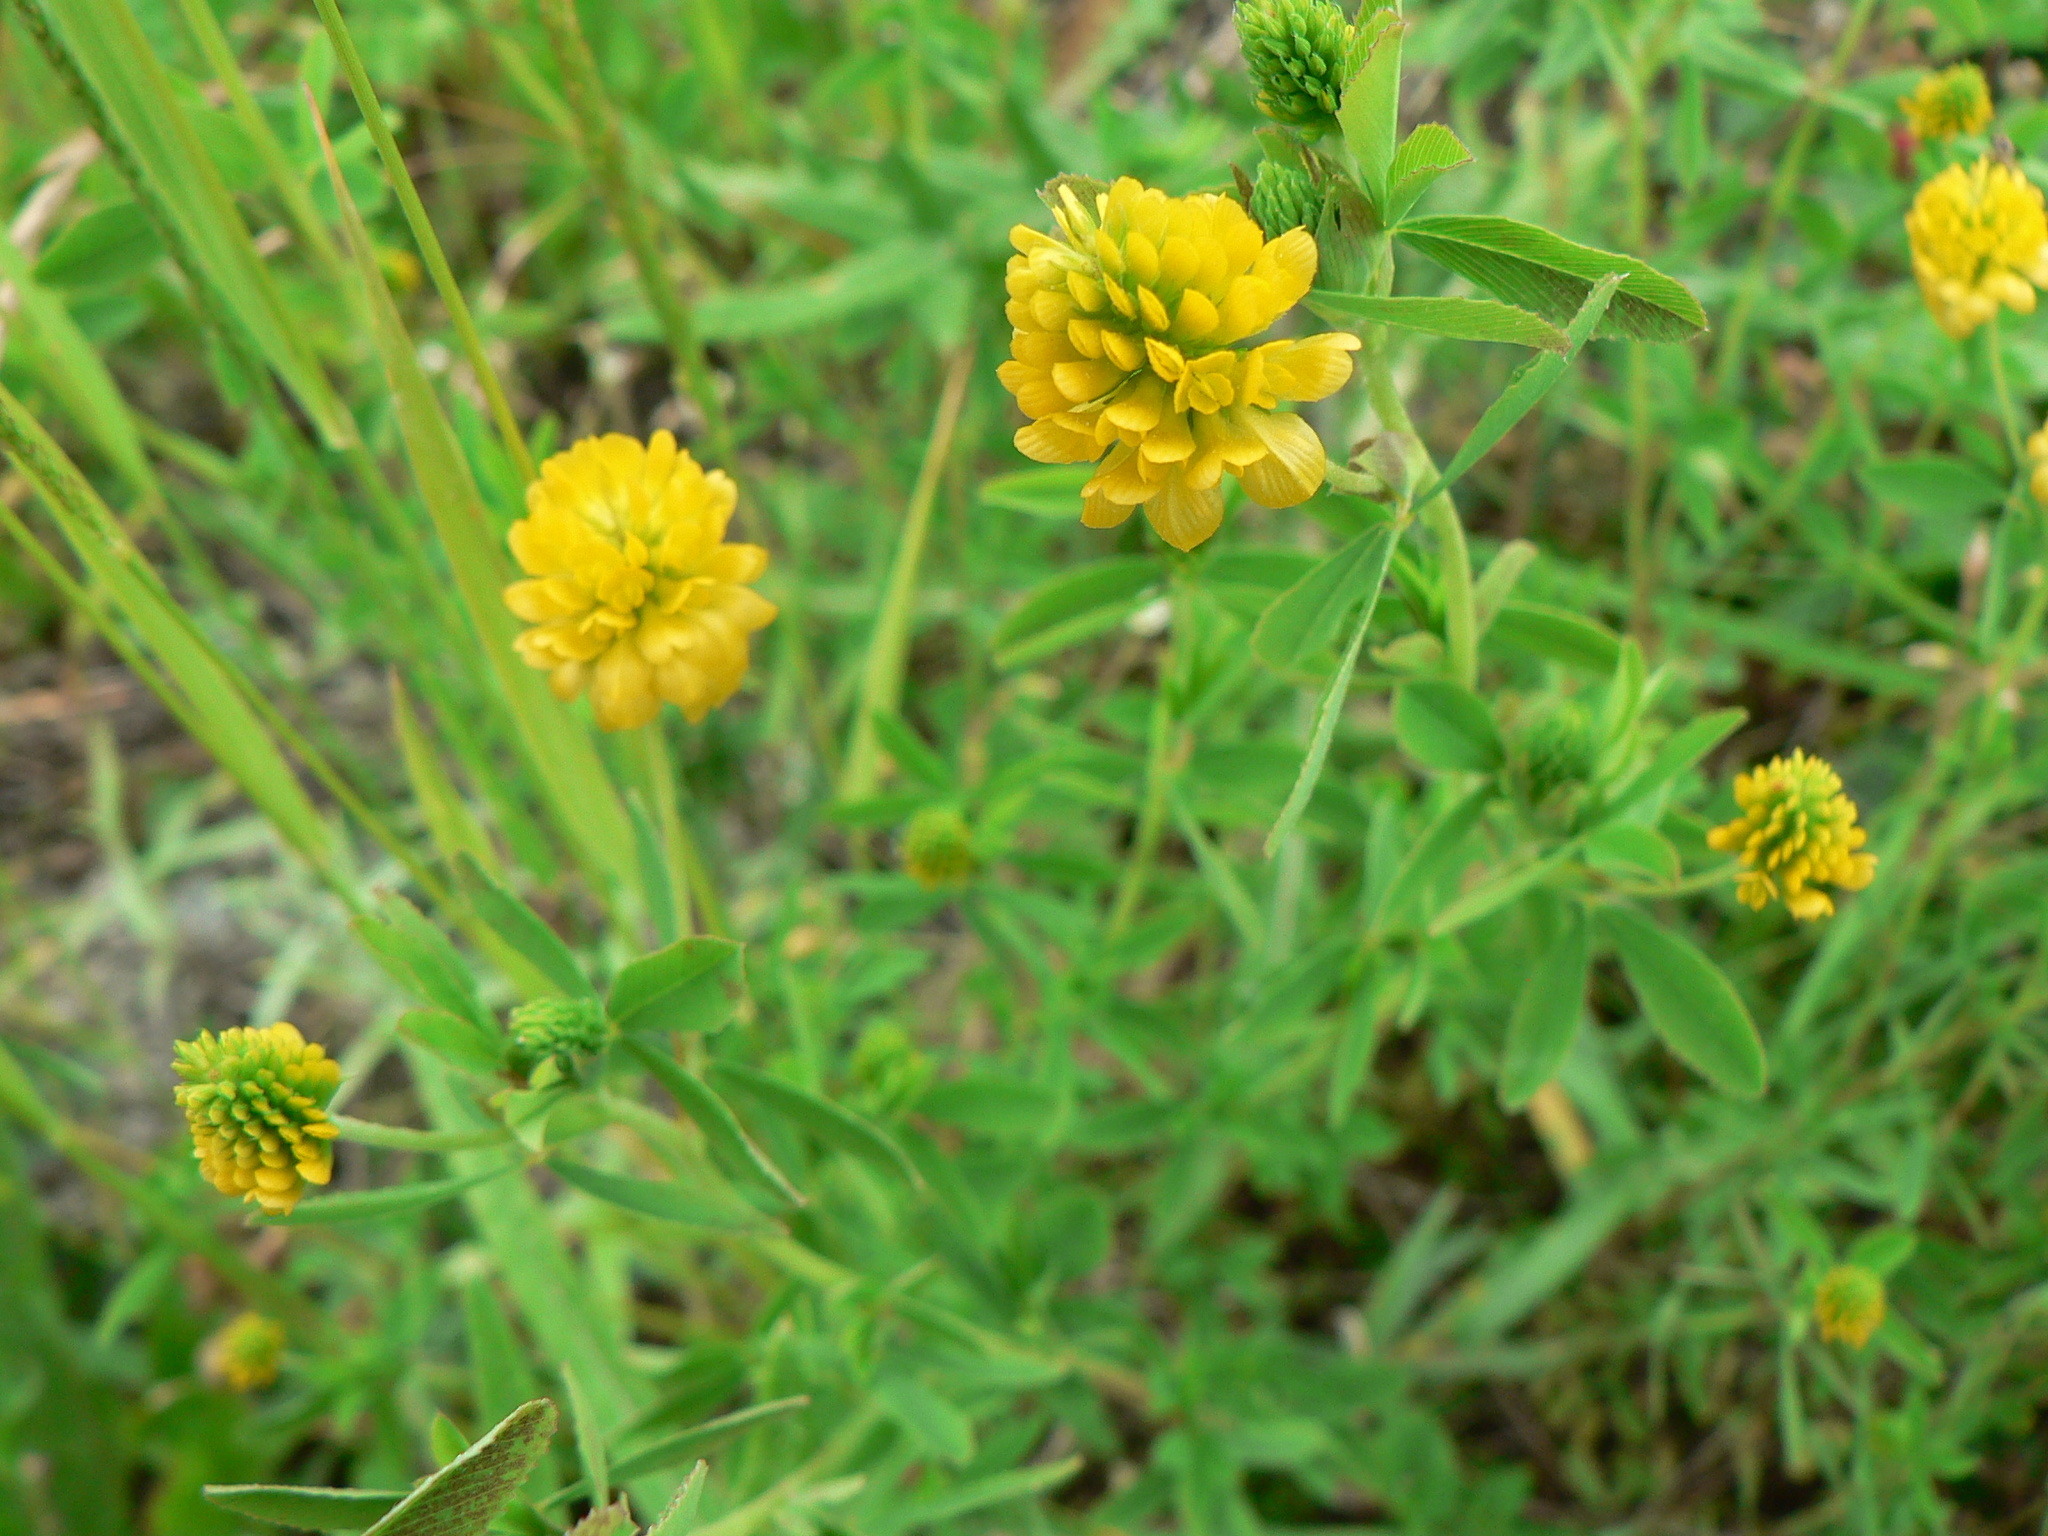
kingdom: Plantae
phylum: Tracheophyta
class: Magnoliopsida
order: Fabales
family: Fabaceae
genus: Trifolium
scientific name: Trifolium aureum
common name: Golden clover
